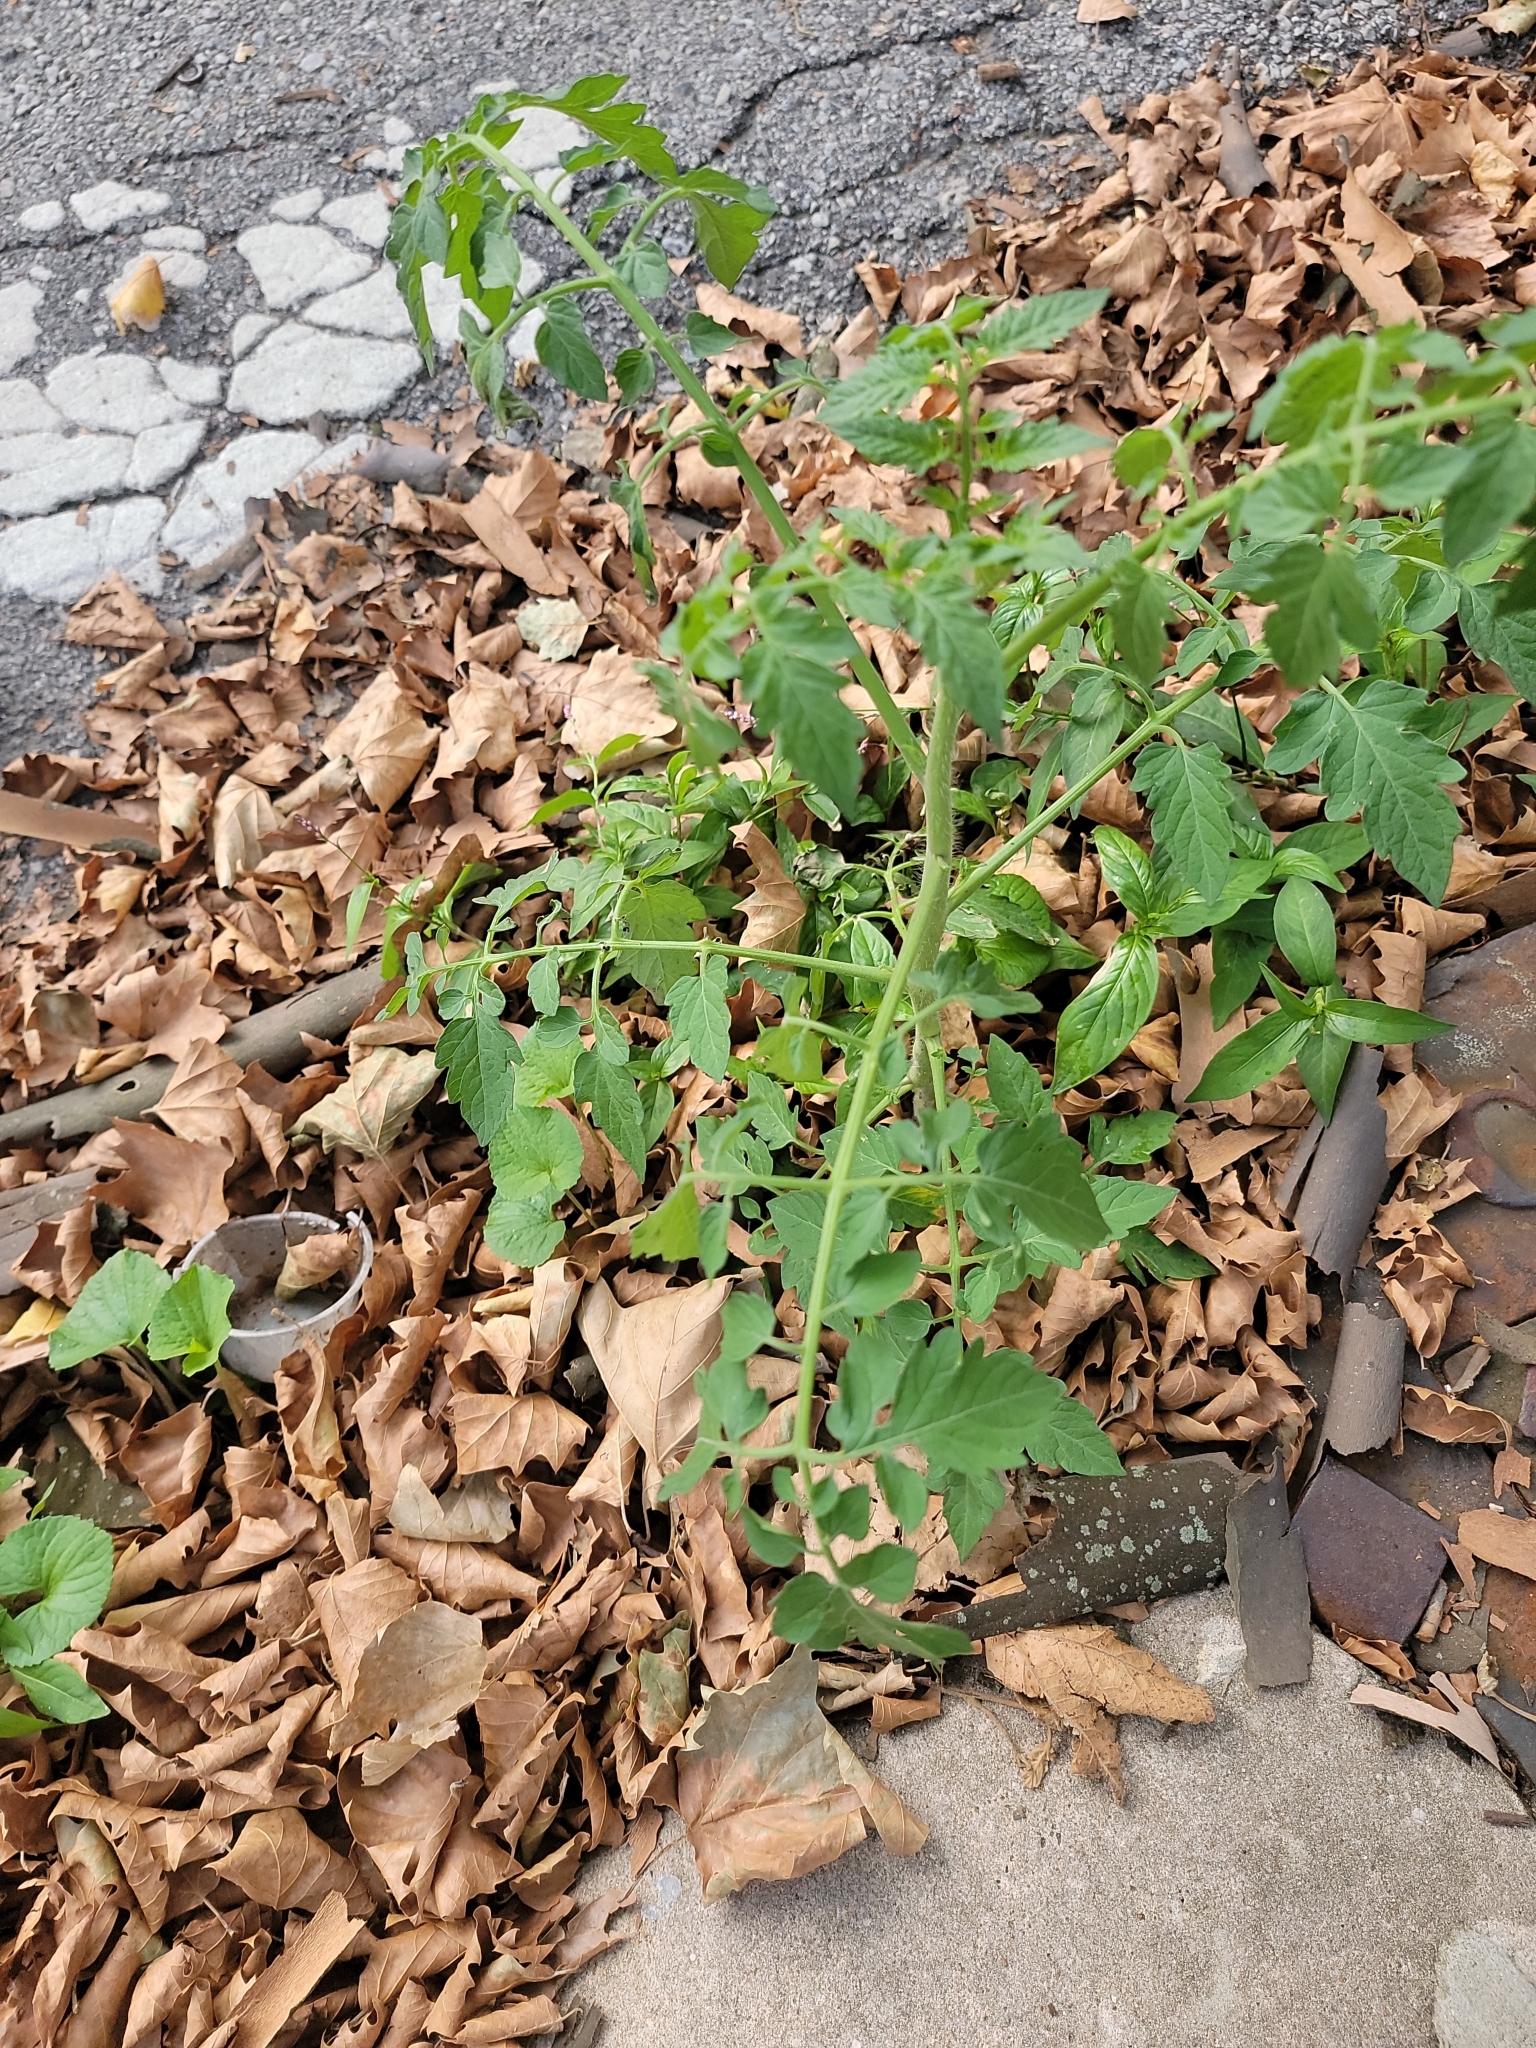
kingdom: Plantae
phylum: Tracheophyta
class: Magnoliopsida
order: Solanales
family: Solanaceae
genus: Solanum
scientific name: Solanum lycopersicum
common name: Garden tomato
